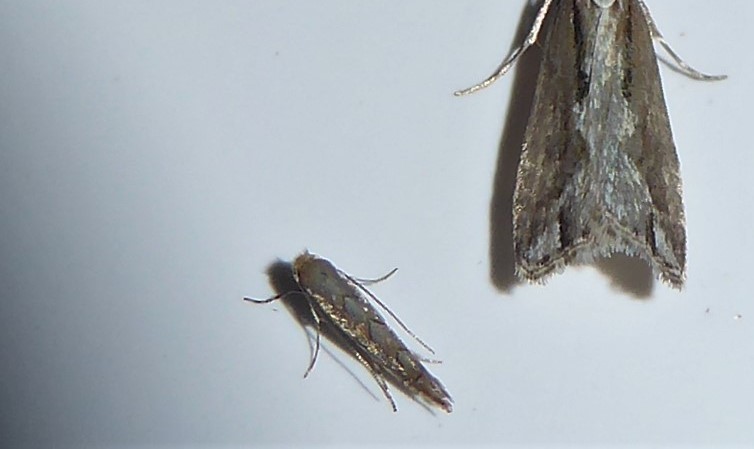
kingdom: Animalia
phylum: Arthropoda
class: Insecta
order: Lepidoptera
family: Gracillariidae
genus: Phyllonorycter
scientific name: Phyllonorycter messaniella
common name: Garden midget
